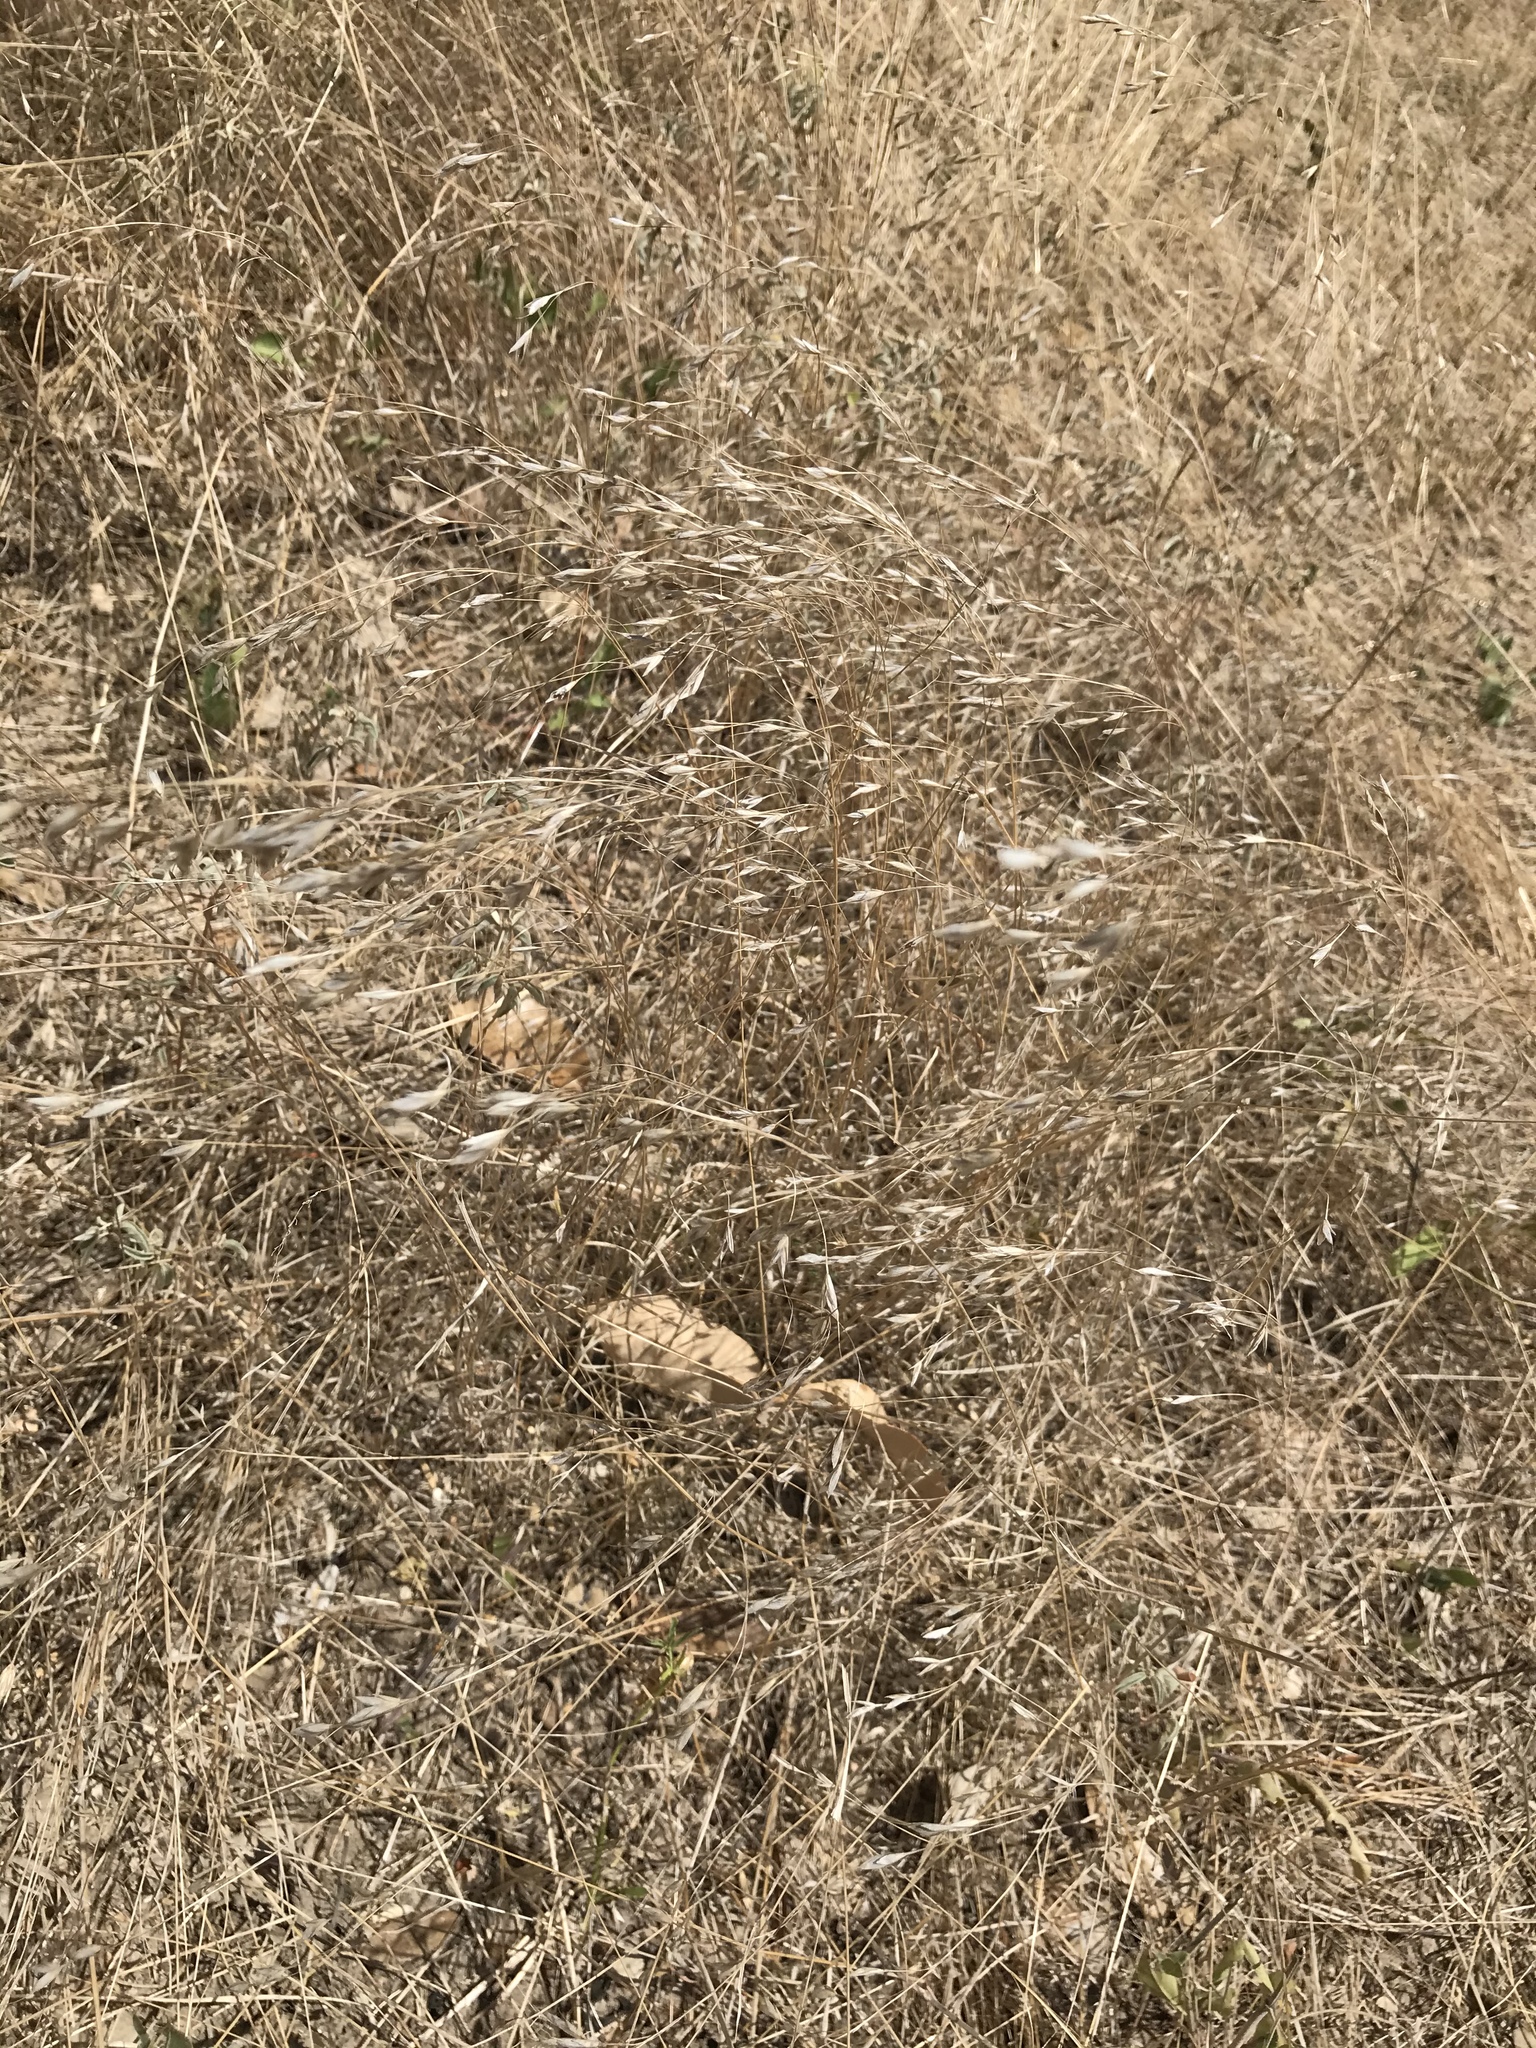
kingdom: Plantae
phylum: Tracheophyta
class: Liliopsida
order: Poales
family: Poaceae
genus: Bromus
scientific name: Bromus japonicus
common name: Japanese brome
